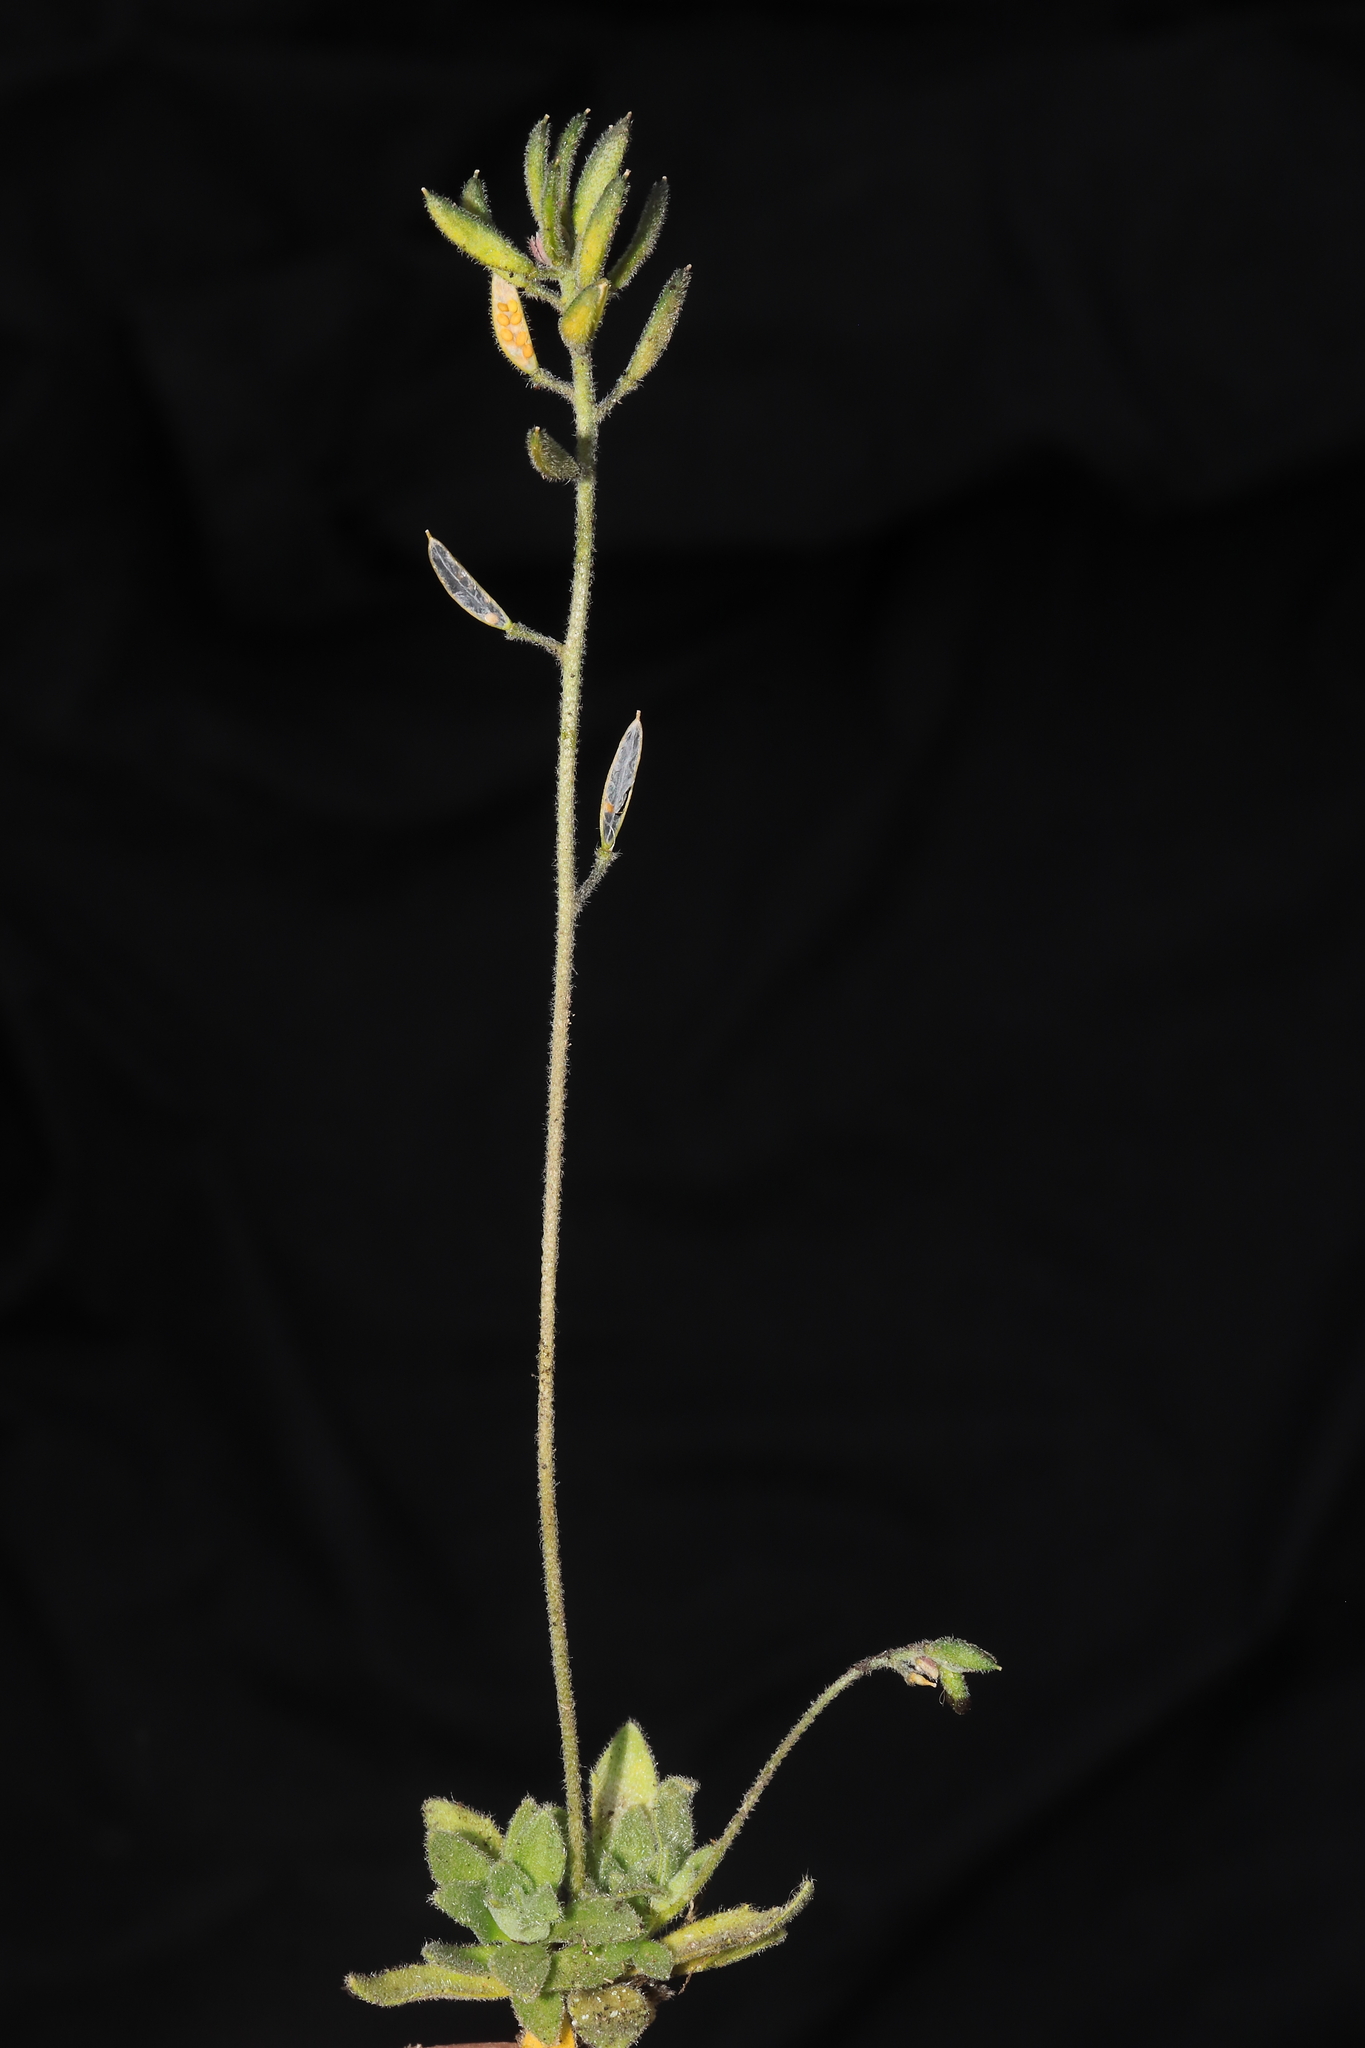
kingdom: Plantae
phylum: Tracheophyta
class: Magnoliopsida
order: Brassicales
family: Brassicaceae
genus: Draba
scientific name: Draba macleanii
